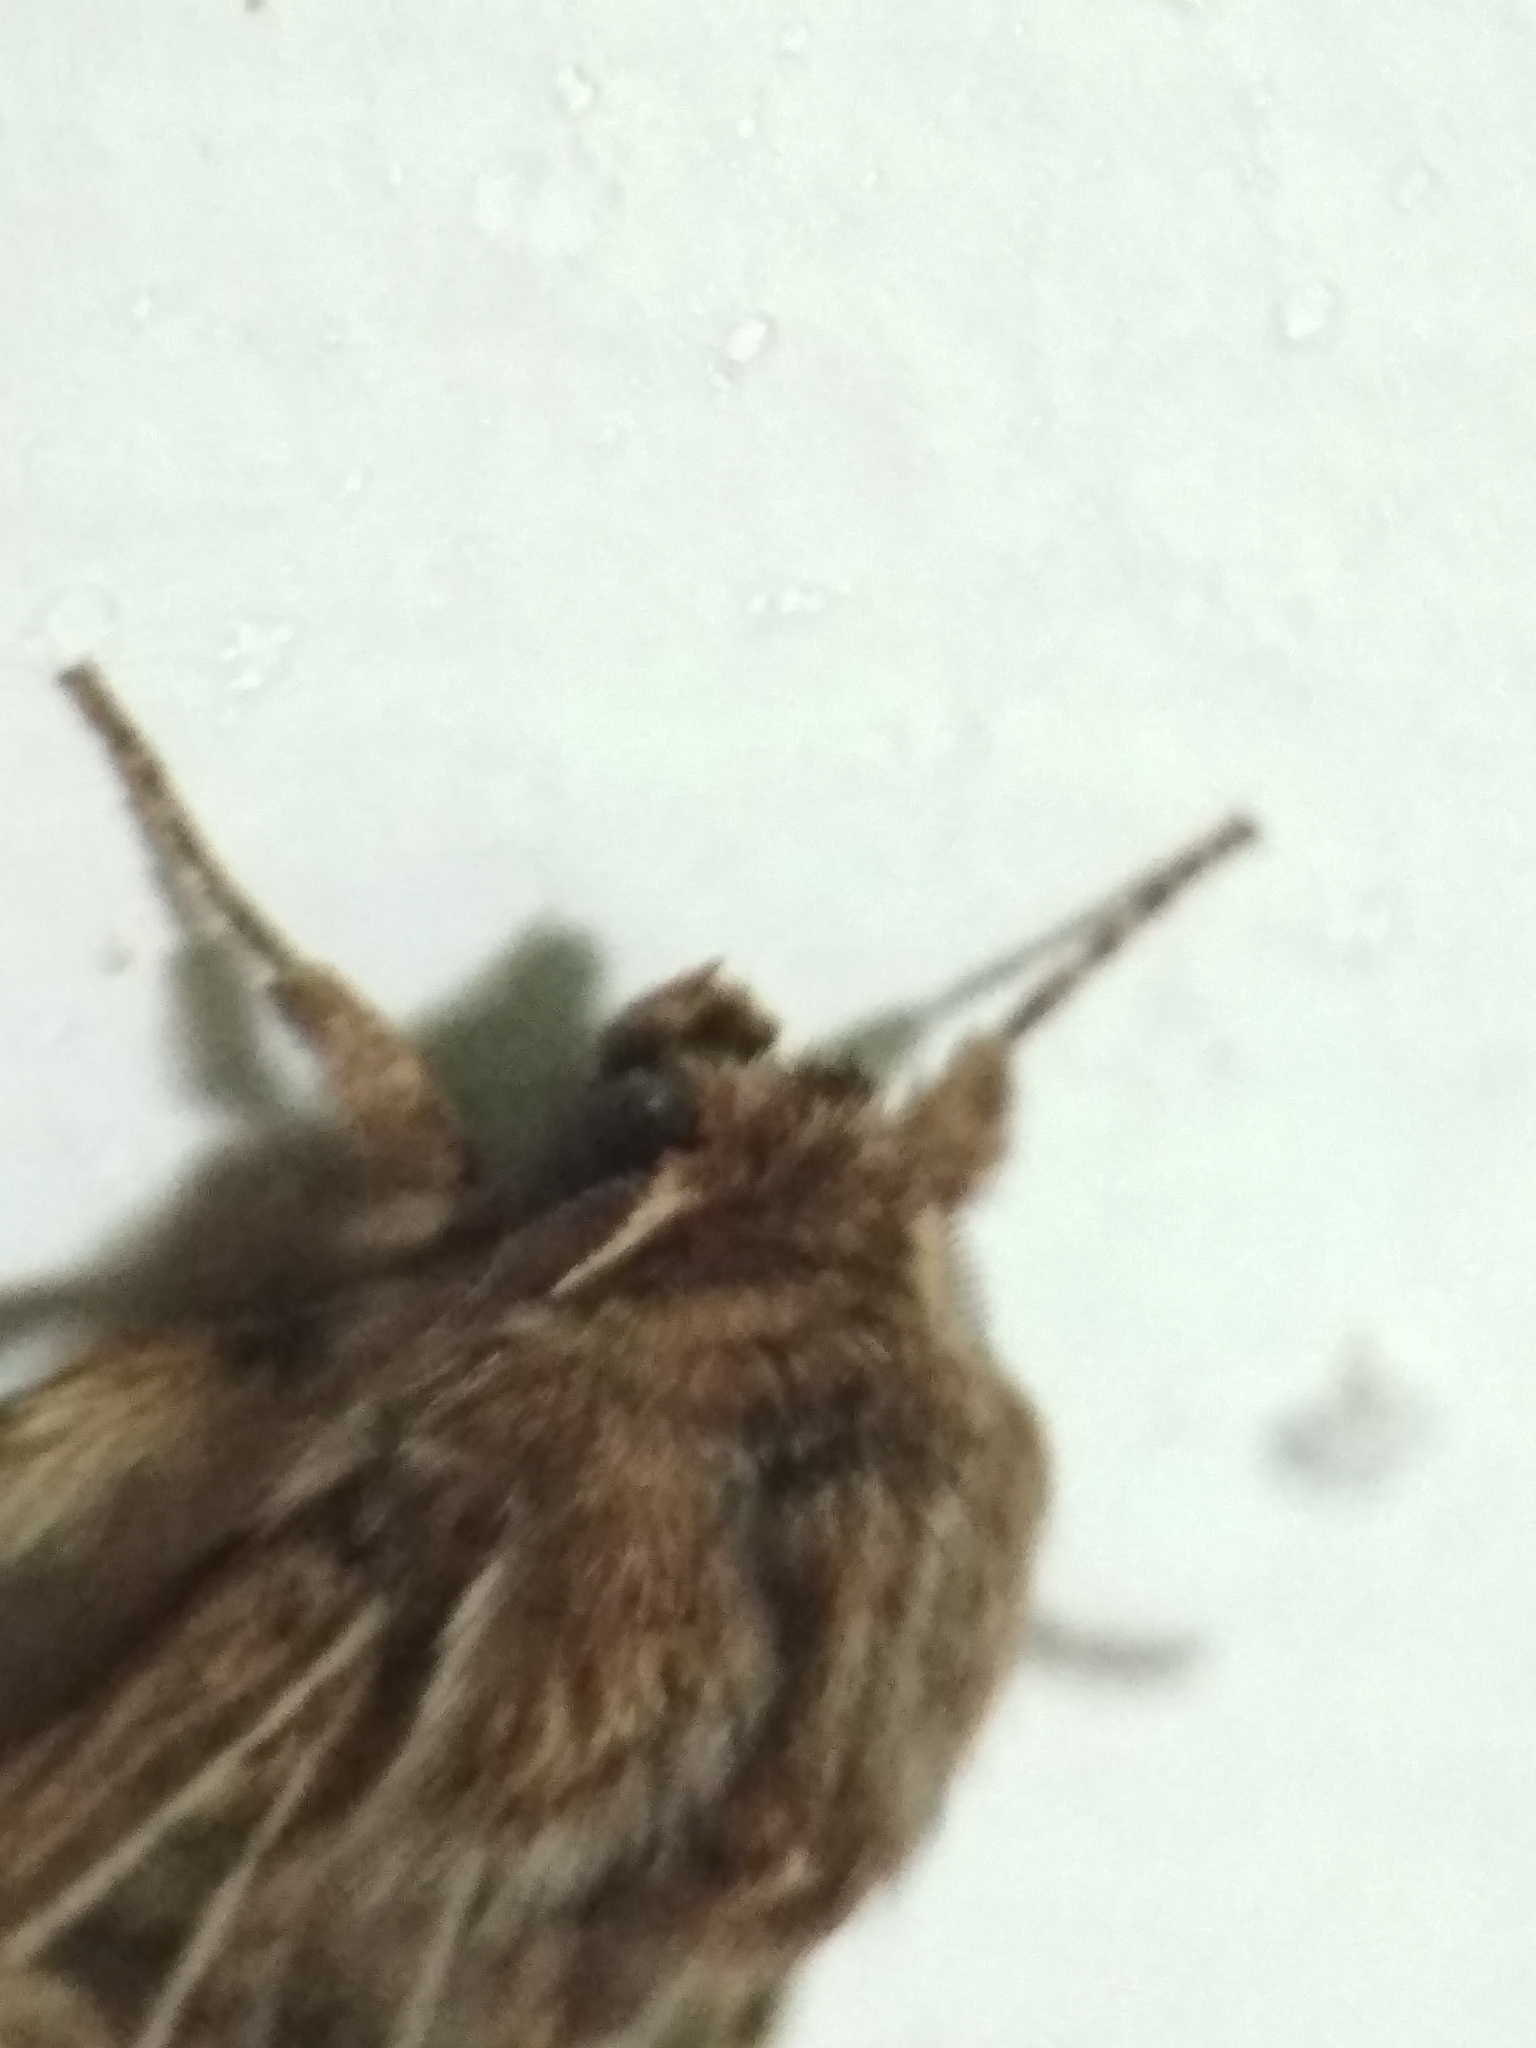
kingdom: Animalia
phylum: Arthropoda
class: Insecta
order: Lepidoptera
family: Noctuidae
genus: Tholera
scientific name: Tholera decimalis
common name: Feathered gothic
